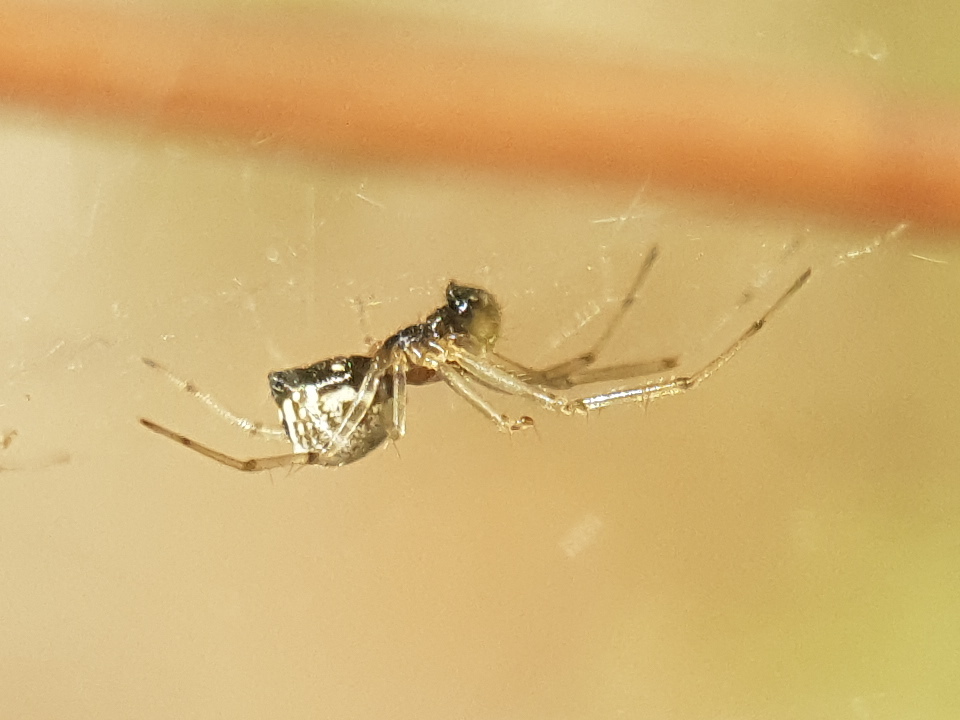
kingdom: Animalia
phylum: Arthropoda
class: Arachnida
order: Araneae
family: Linyphiidae
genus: Frontinellina
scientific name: Frontinellina frutetorum
